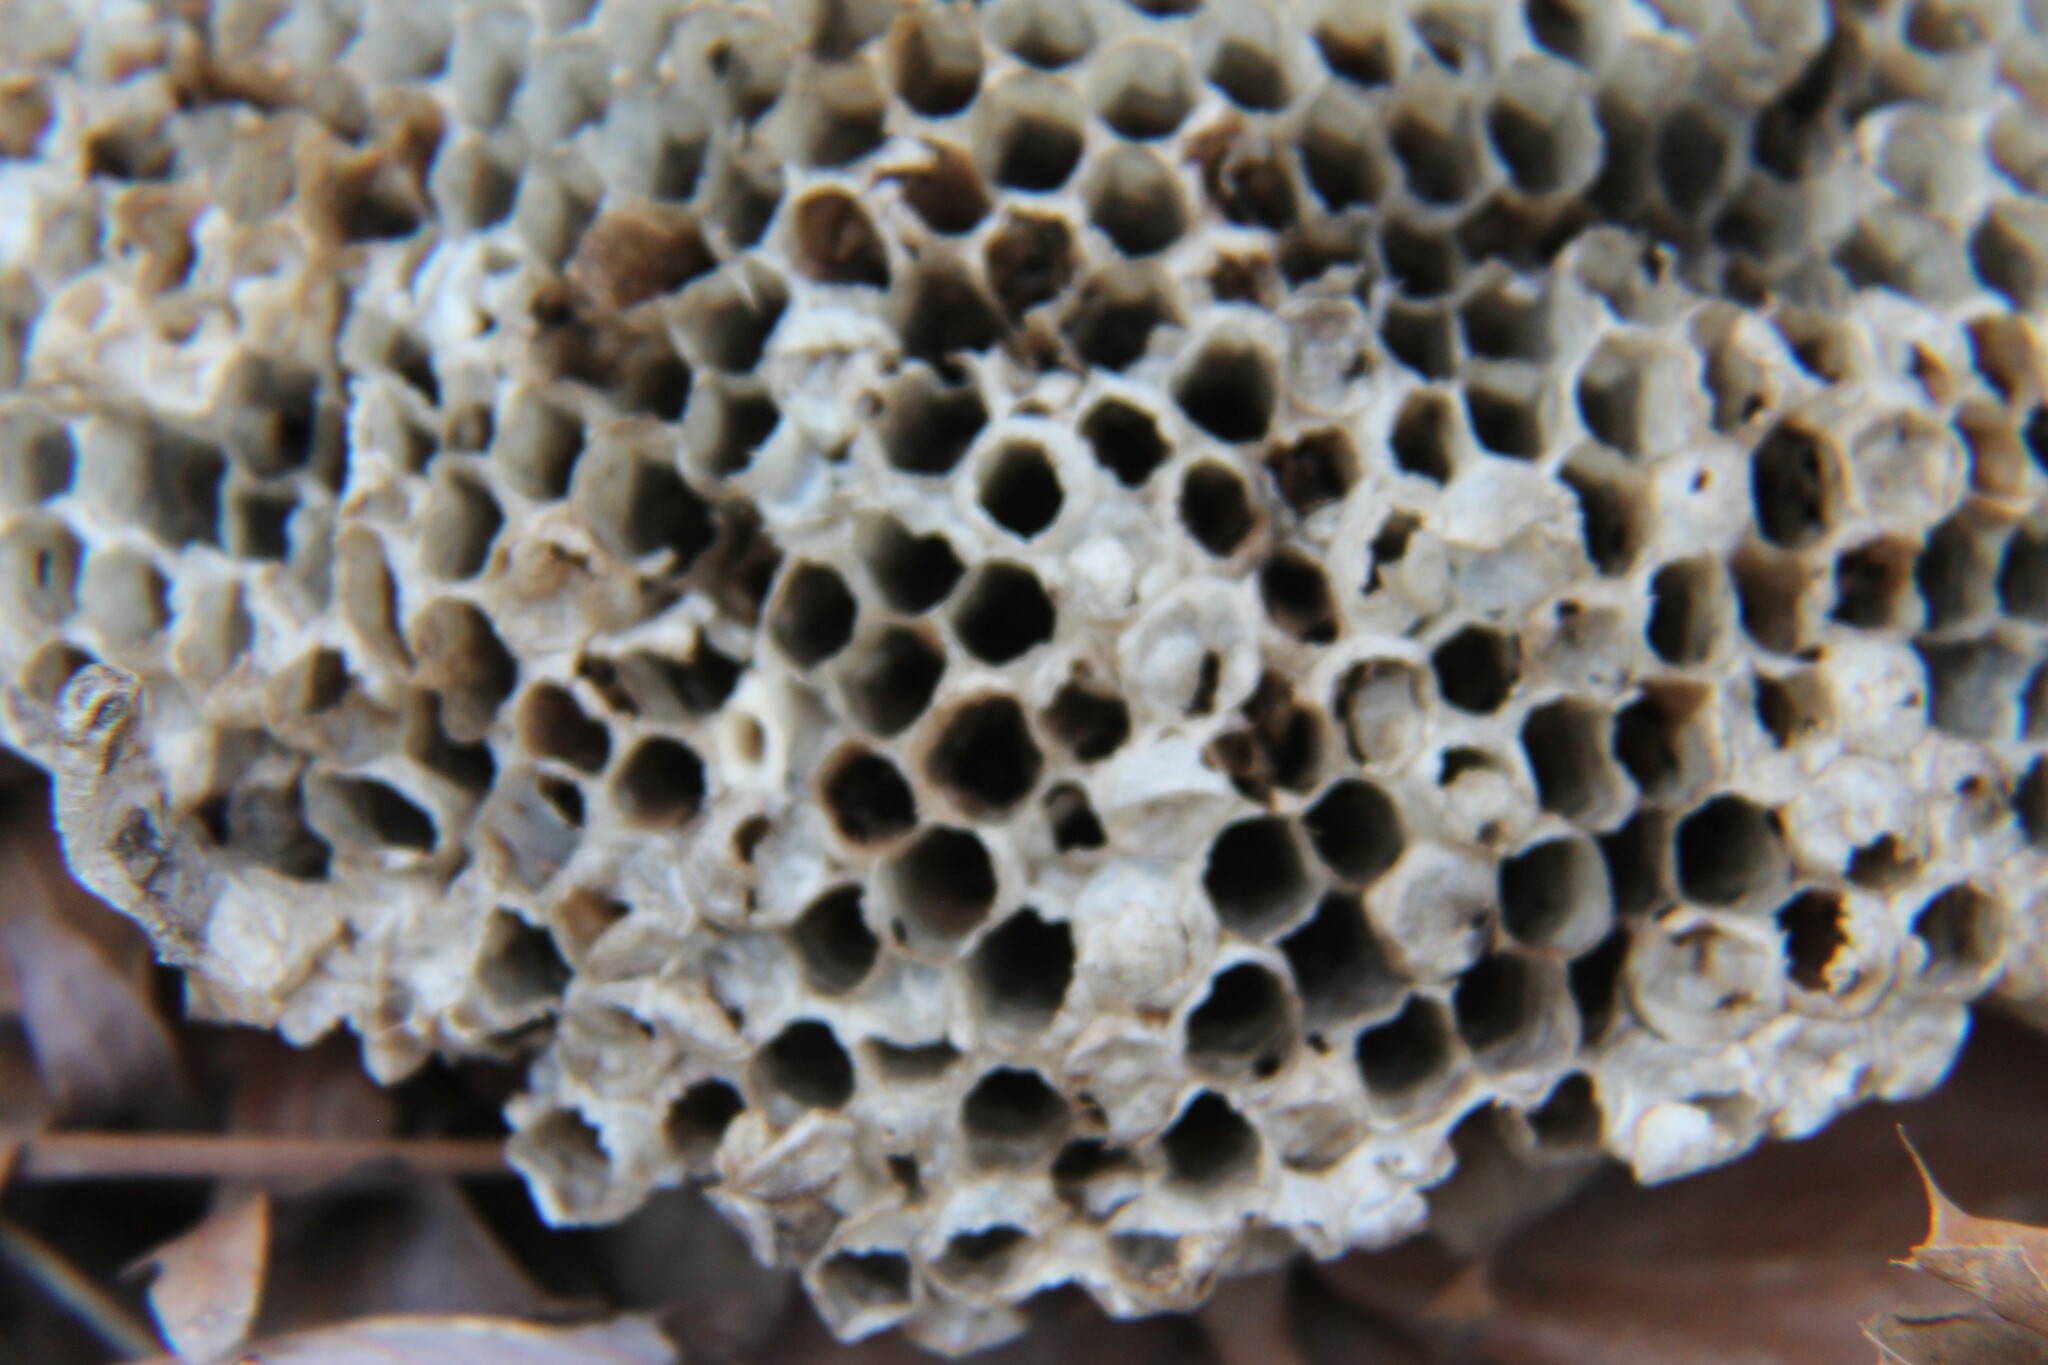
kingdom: Animalia
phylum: Arthropoda
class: Insecta
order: Hymenoptera
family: Eumenidae
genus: Polistes
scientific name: Polistes annularis
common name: Ringed paper wasp
